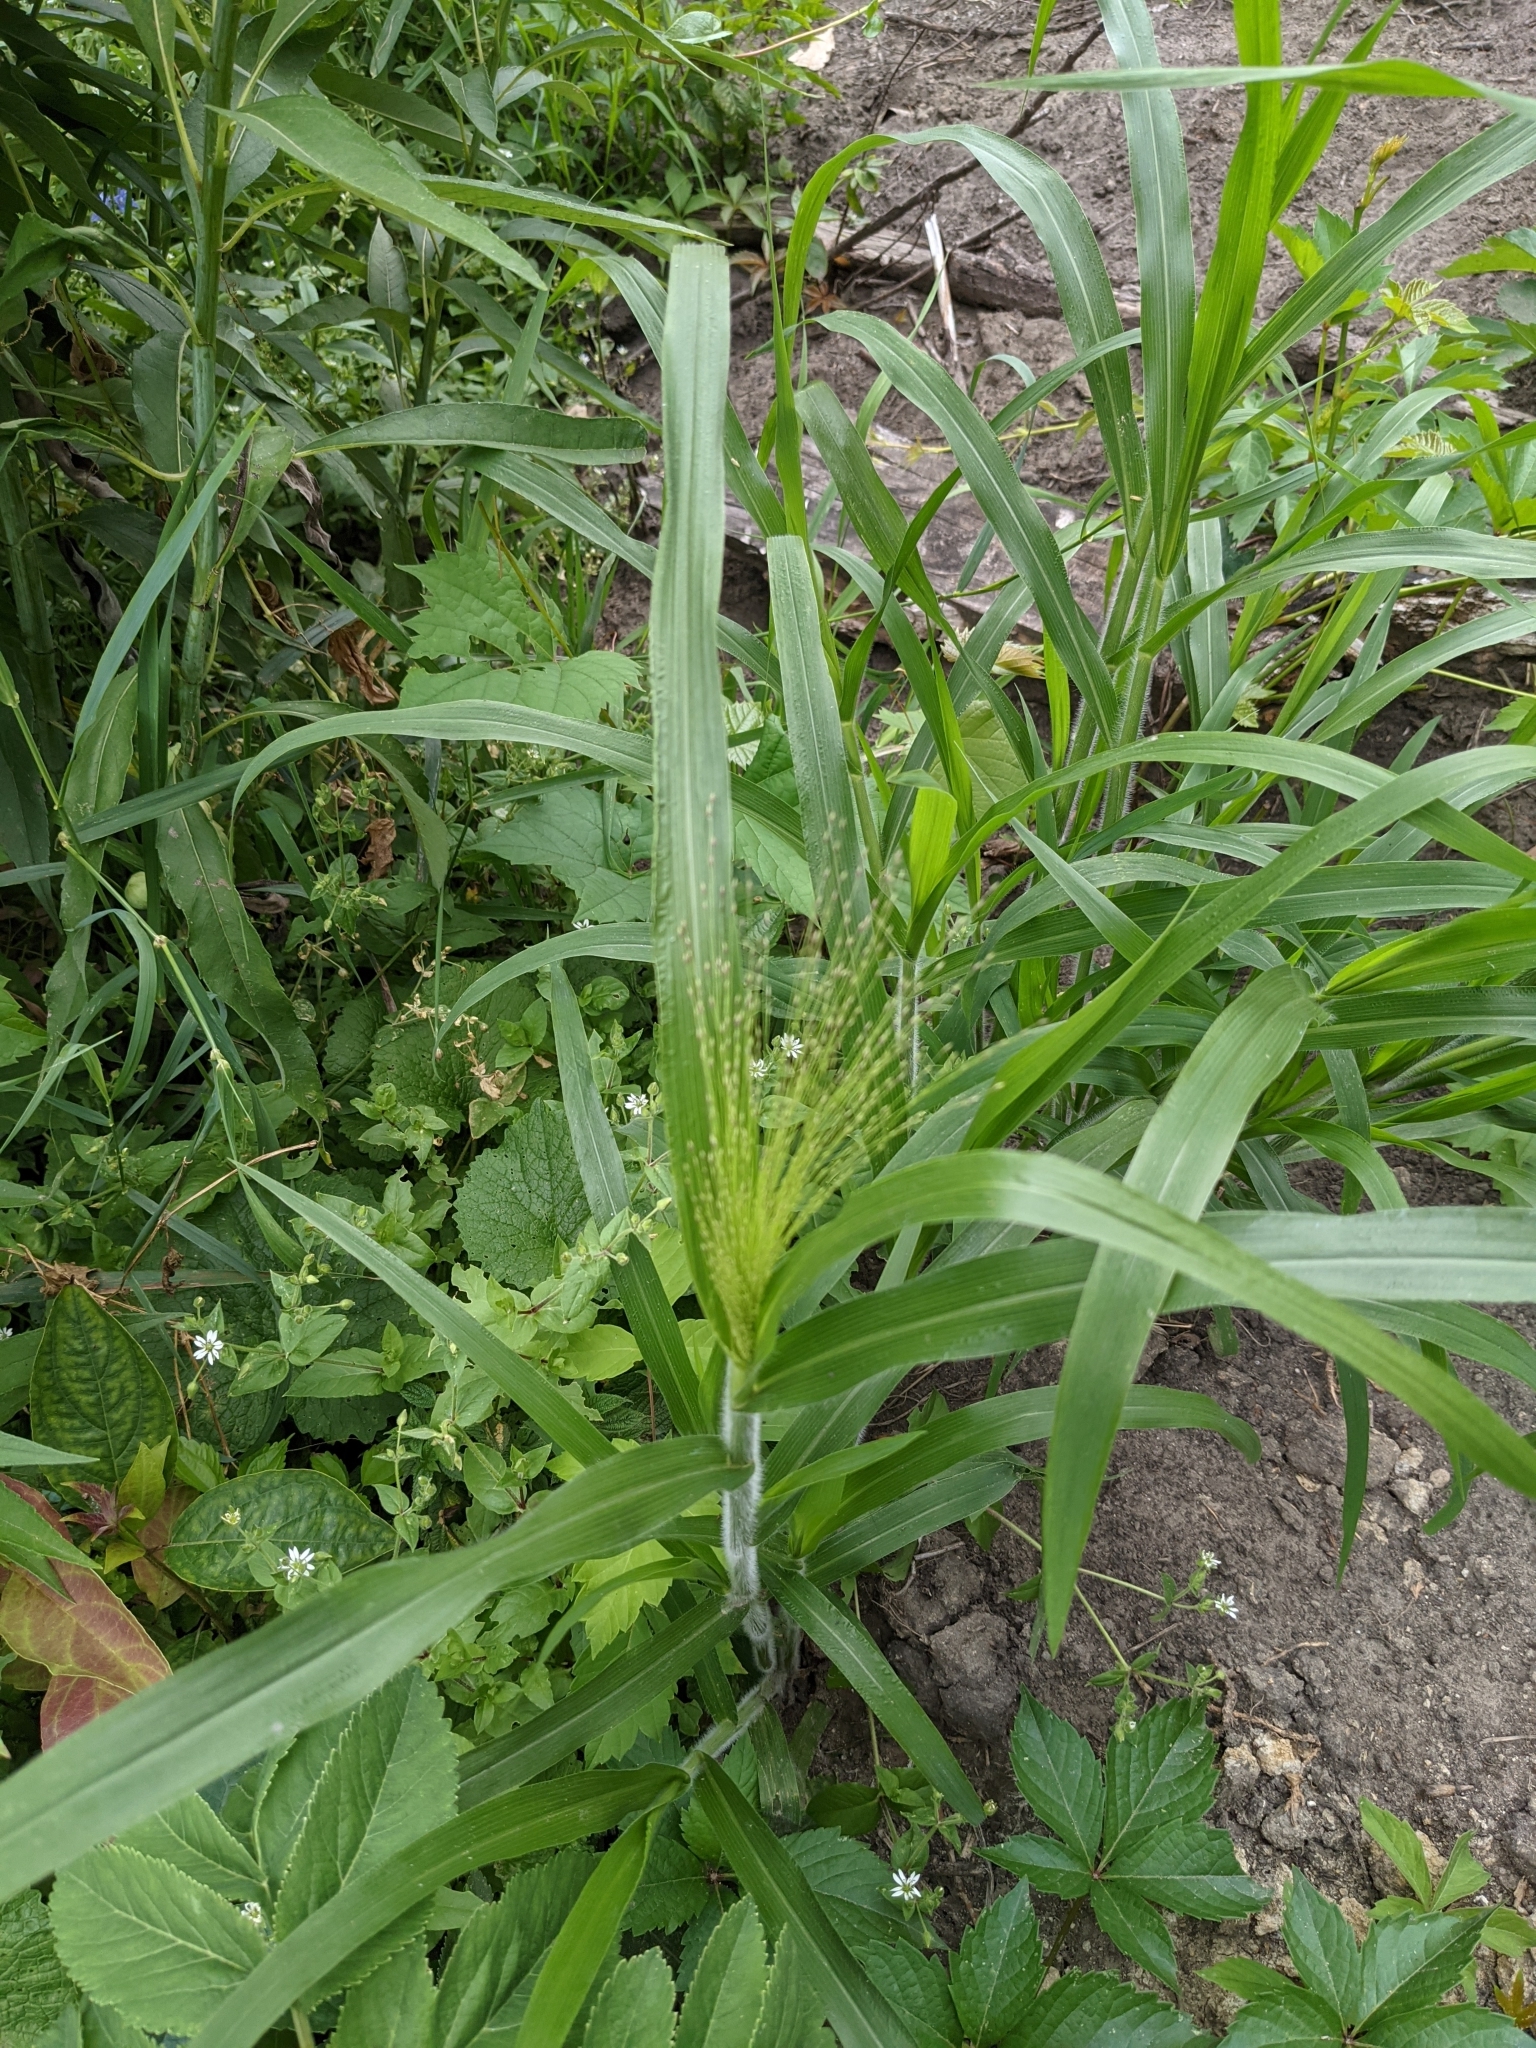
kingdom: Plantae
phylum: Tracheophyta
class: Liliopsida
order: Poales
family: Poaceae
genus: Panicum
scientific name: Panicum capillare
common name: Witch-grass
